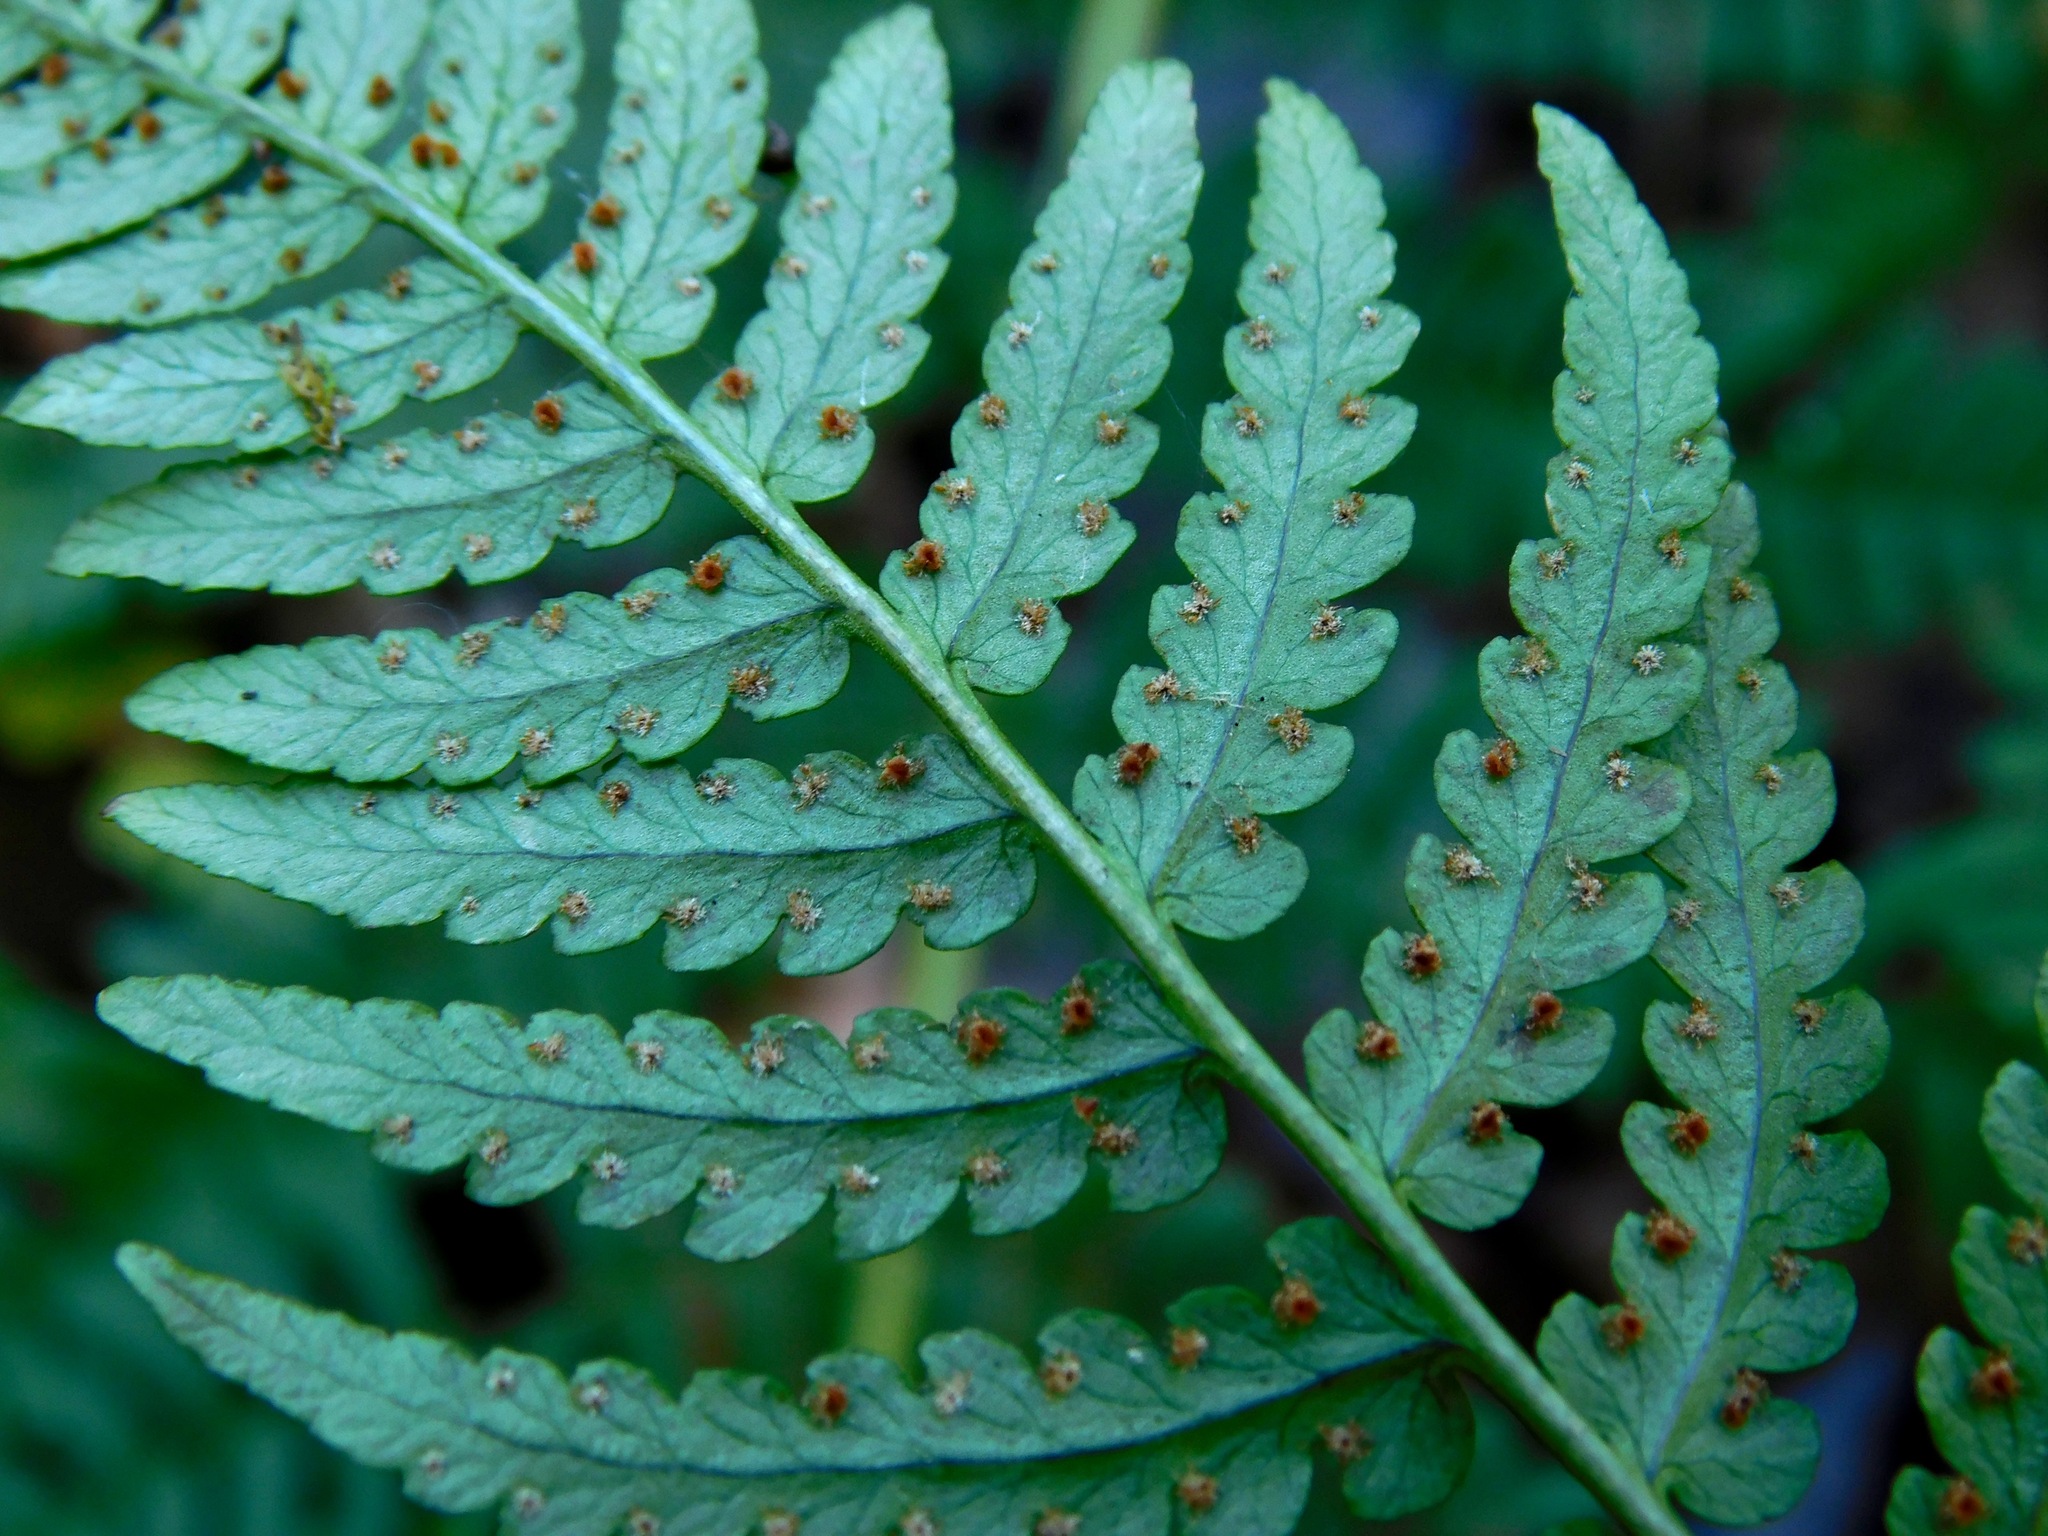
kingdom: Plantae
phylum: Tracheophyta
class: Polypodiopsida
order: Polypodiales
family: Dryopteridaceae
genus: Dryopteris
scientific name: Dryopteris marginalis
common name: Marginal wood fern
